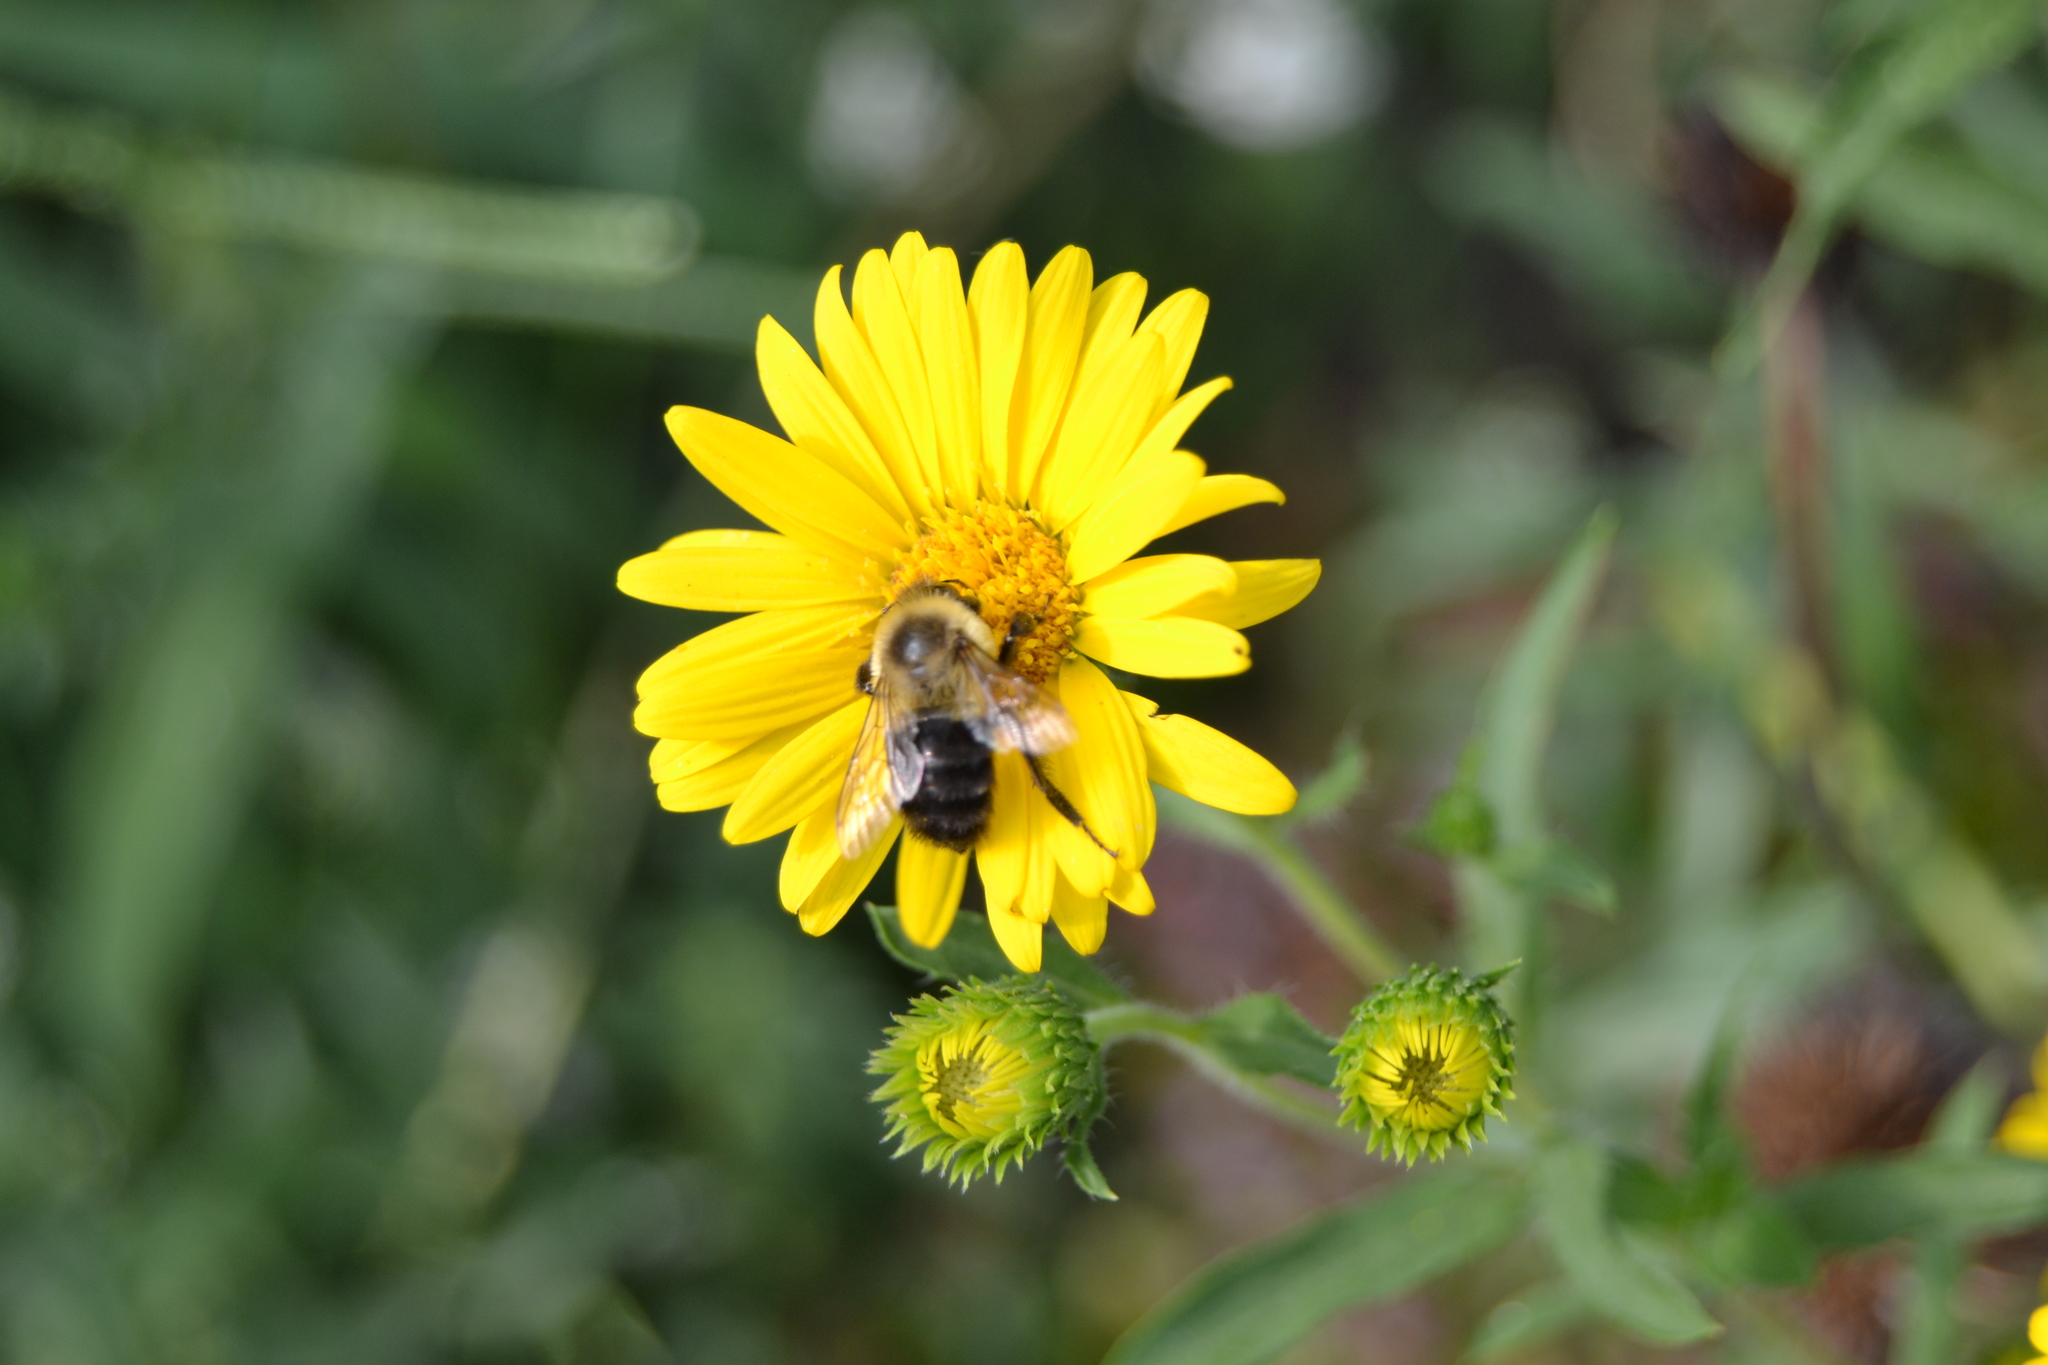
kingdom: Plantae
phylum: Tracheophyta
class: Magnoliopsida
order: Asterales
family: Asteraceae
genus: Heterotheca
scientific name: Heterotheca camporum
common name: Prairie golden-aster
